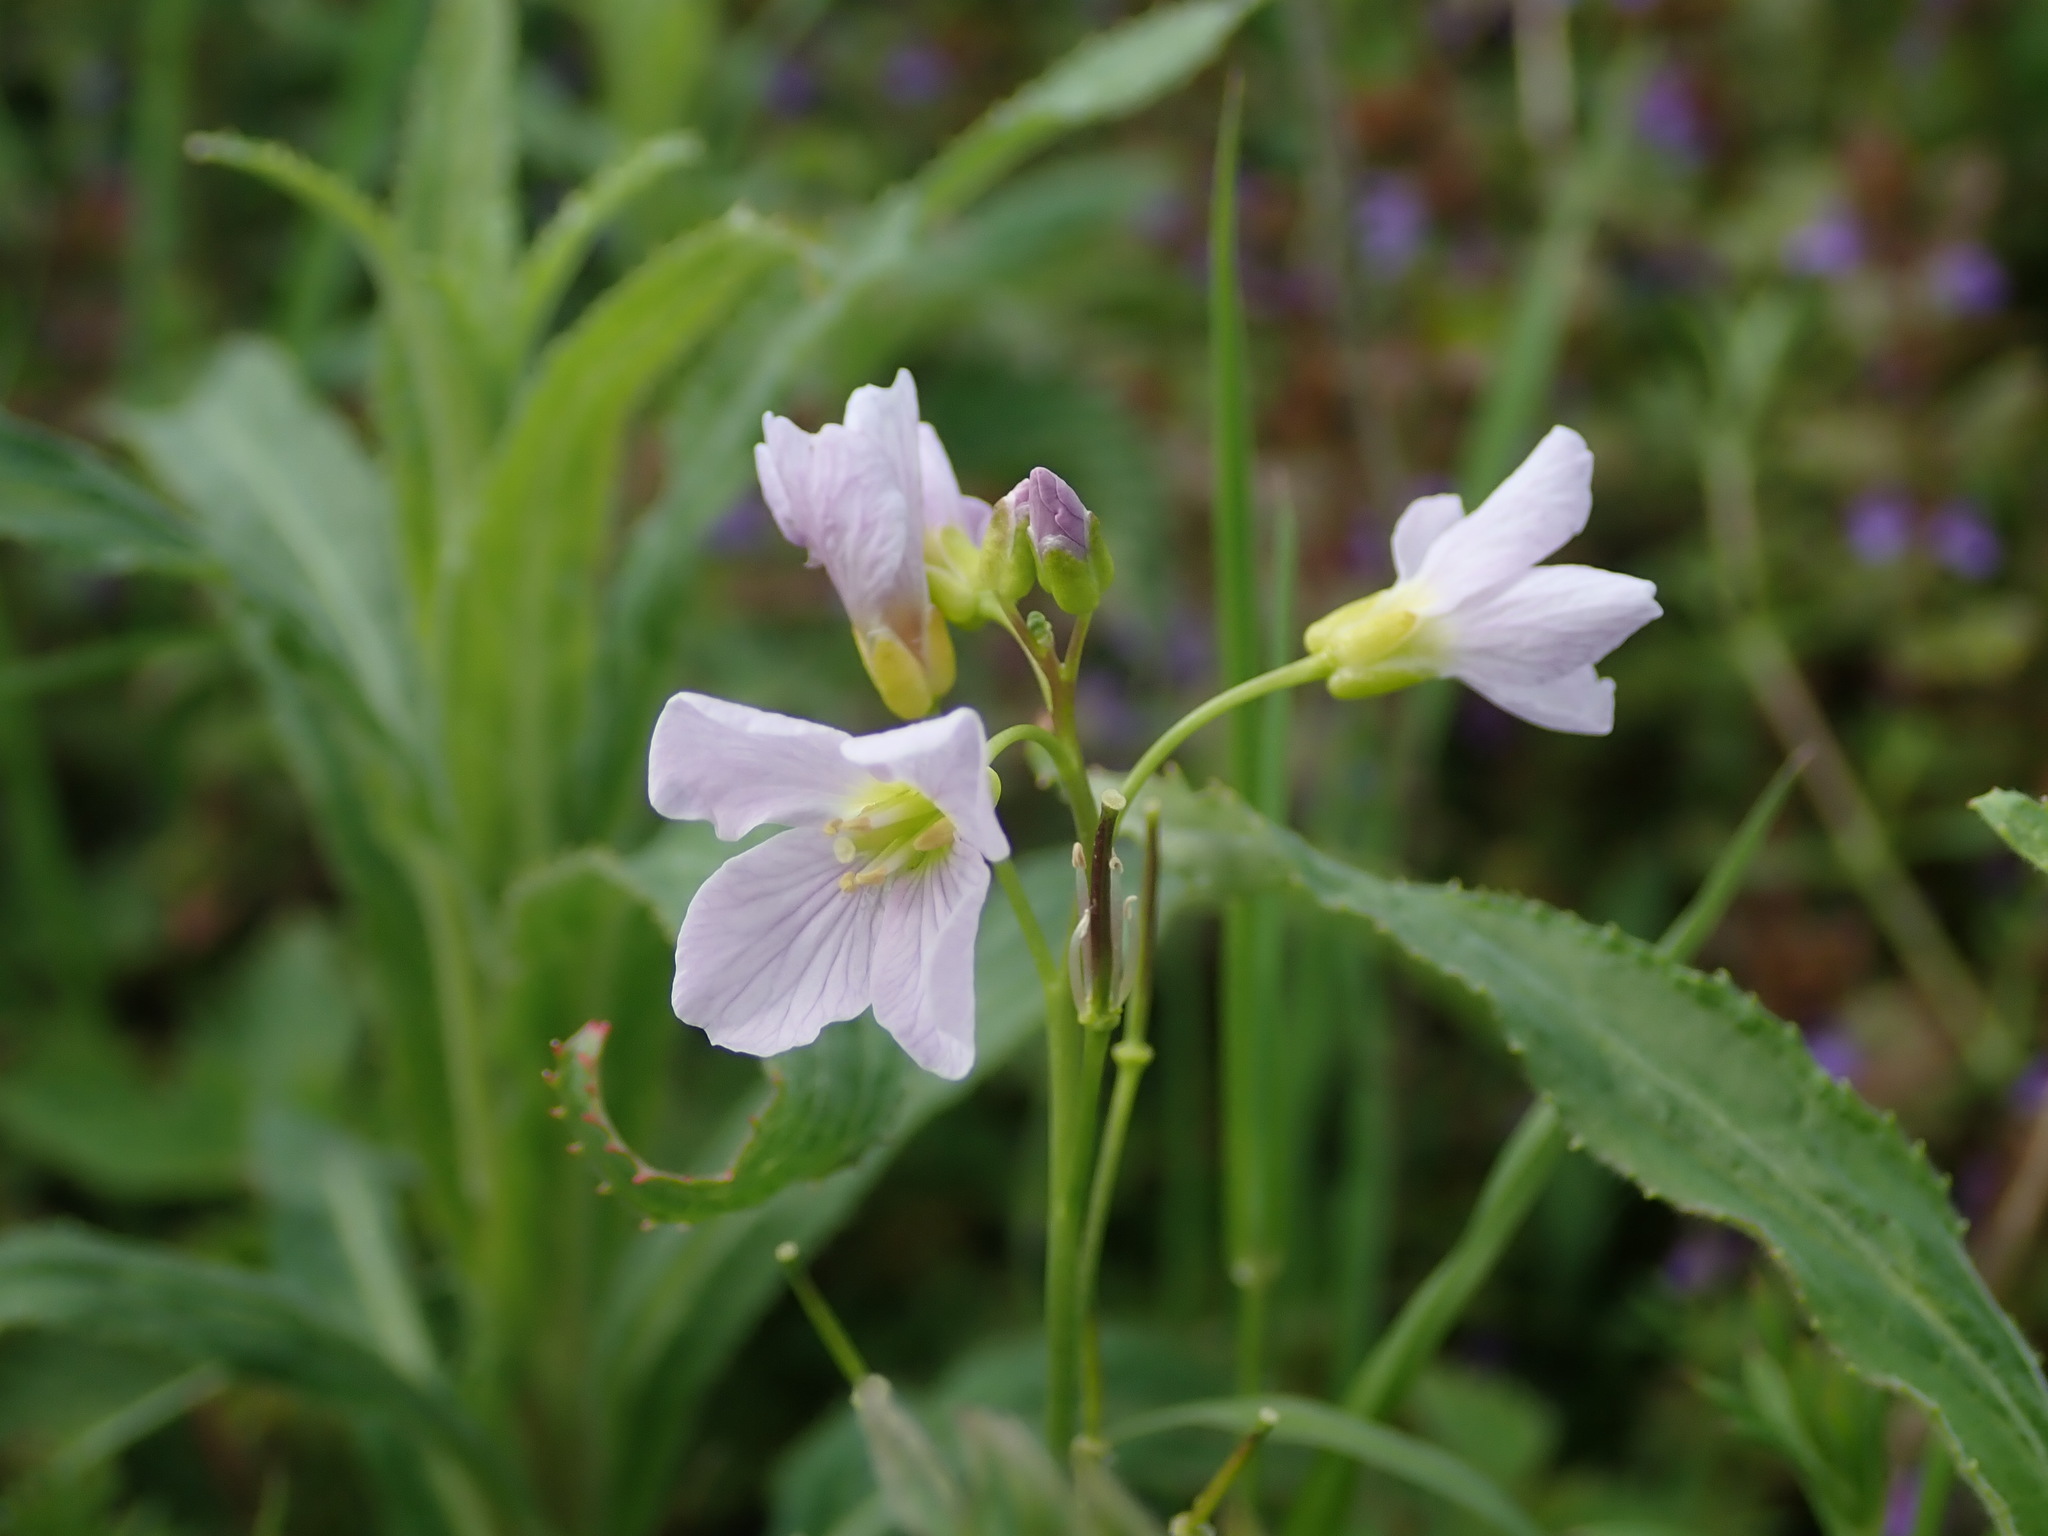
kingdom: Plantae
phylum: Tracheophyta
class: Magnoliopsida
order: Brassicales
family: Brassicaceae
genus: Cardamine
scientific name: Cardamine pratensis
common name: Cuckoo flower
